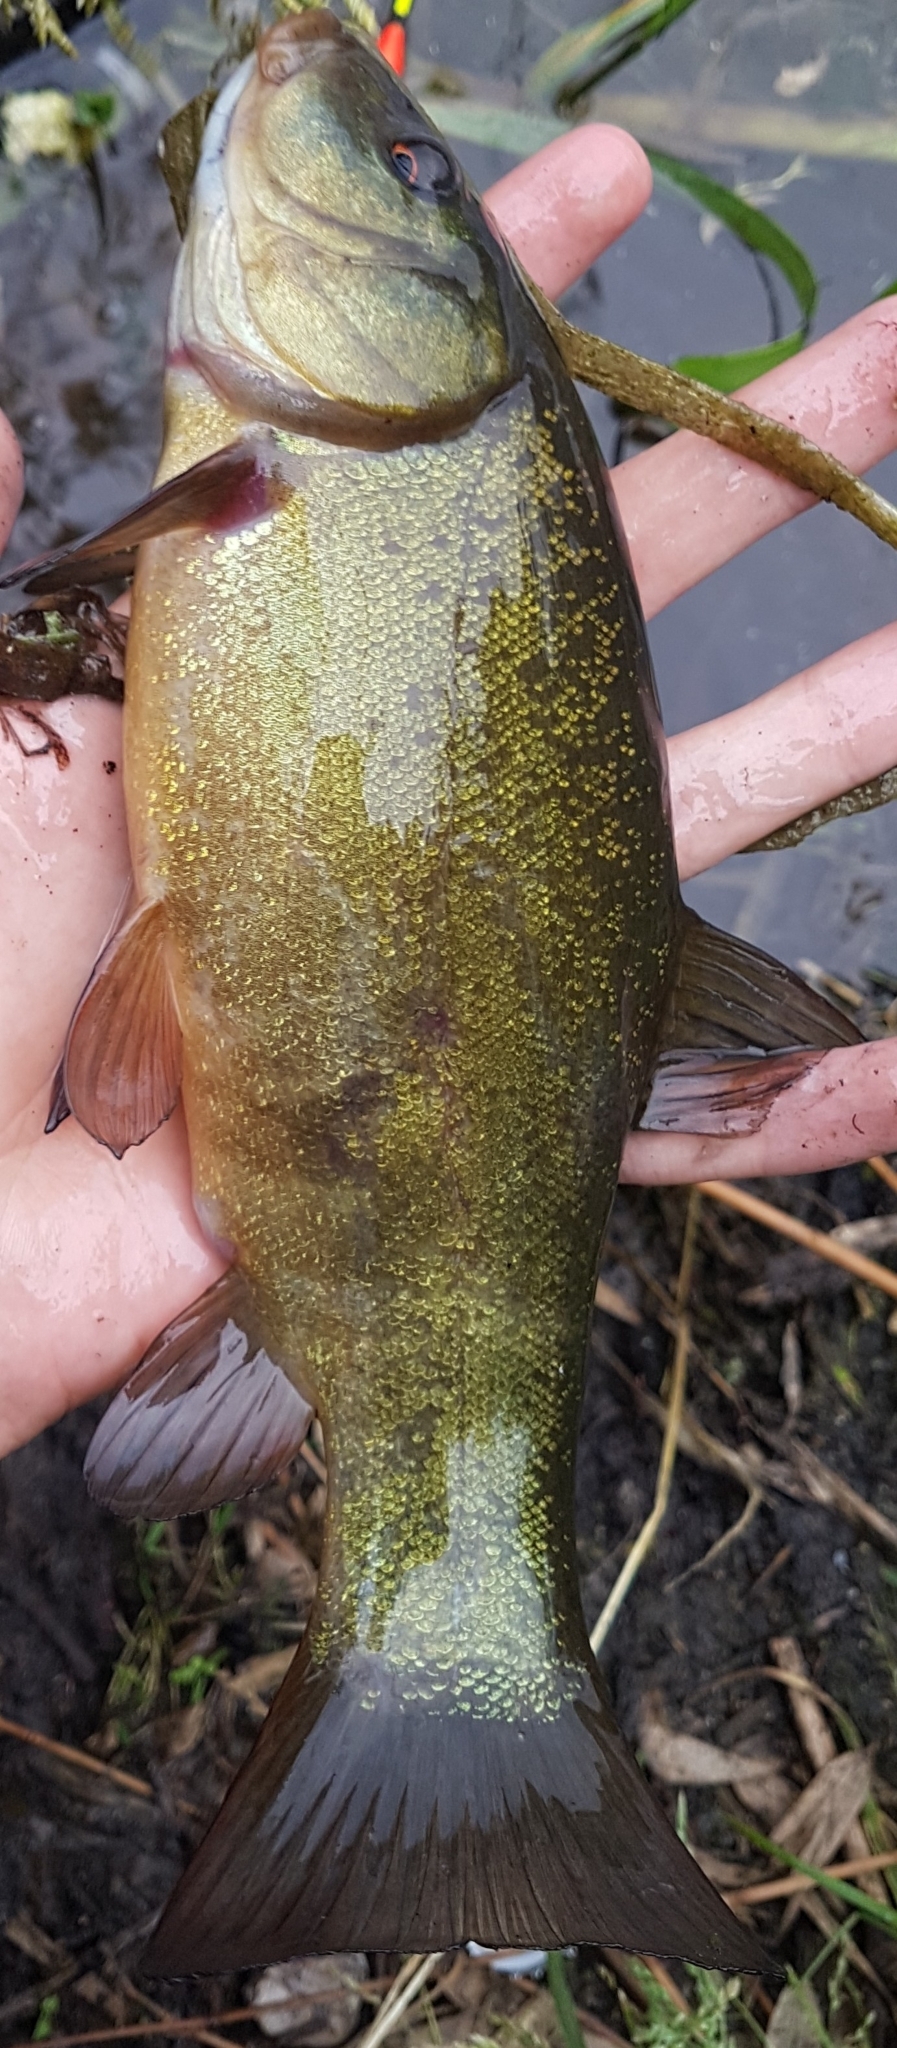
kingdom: Animalia
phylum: Chordata
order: Cypriniformes
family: Cyprinidae
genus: Tinca
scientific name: Tinca tinca
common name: Tench
